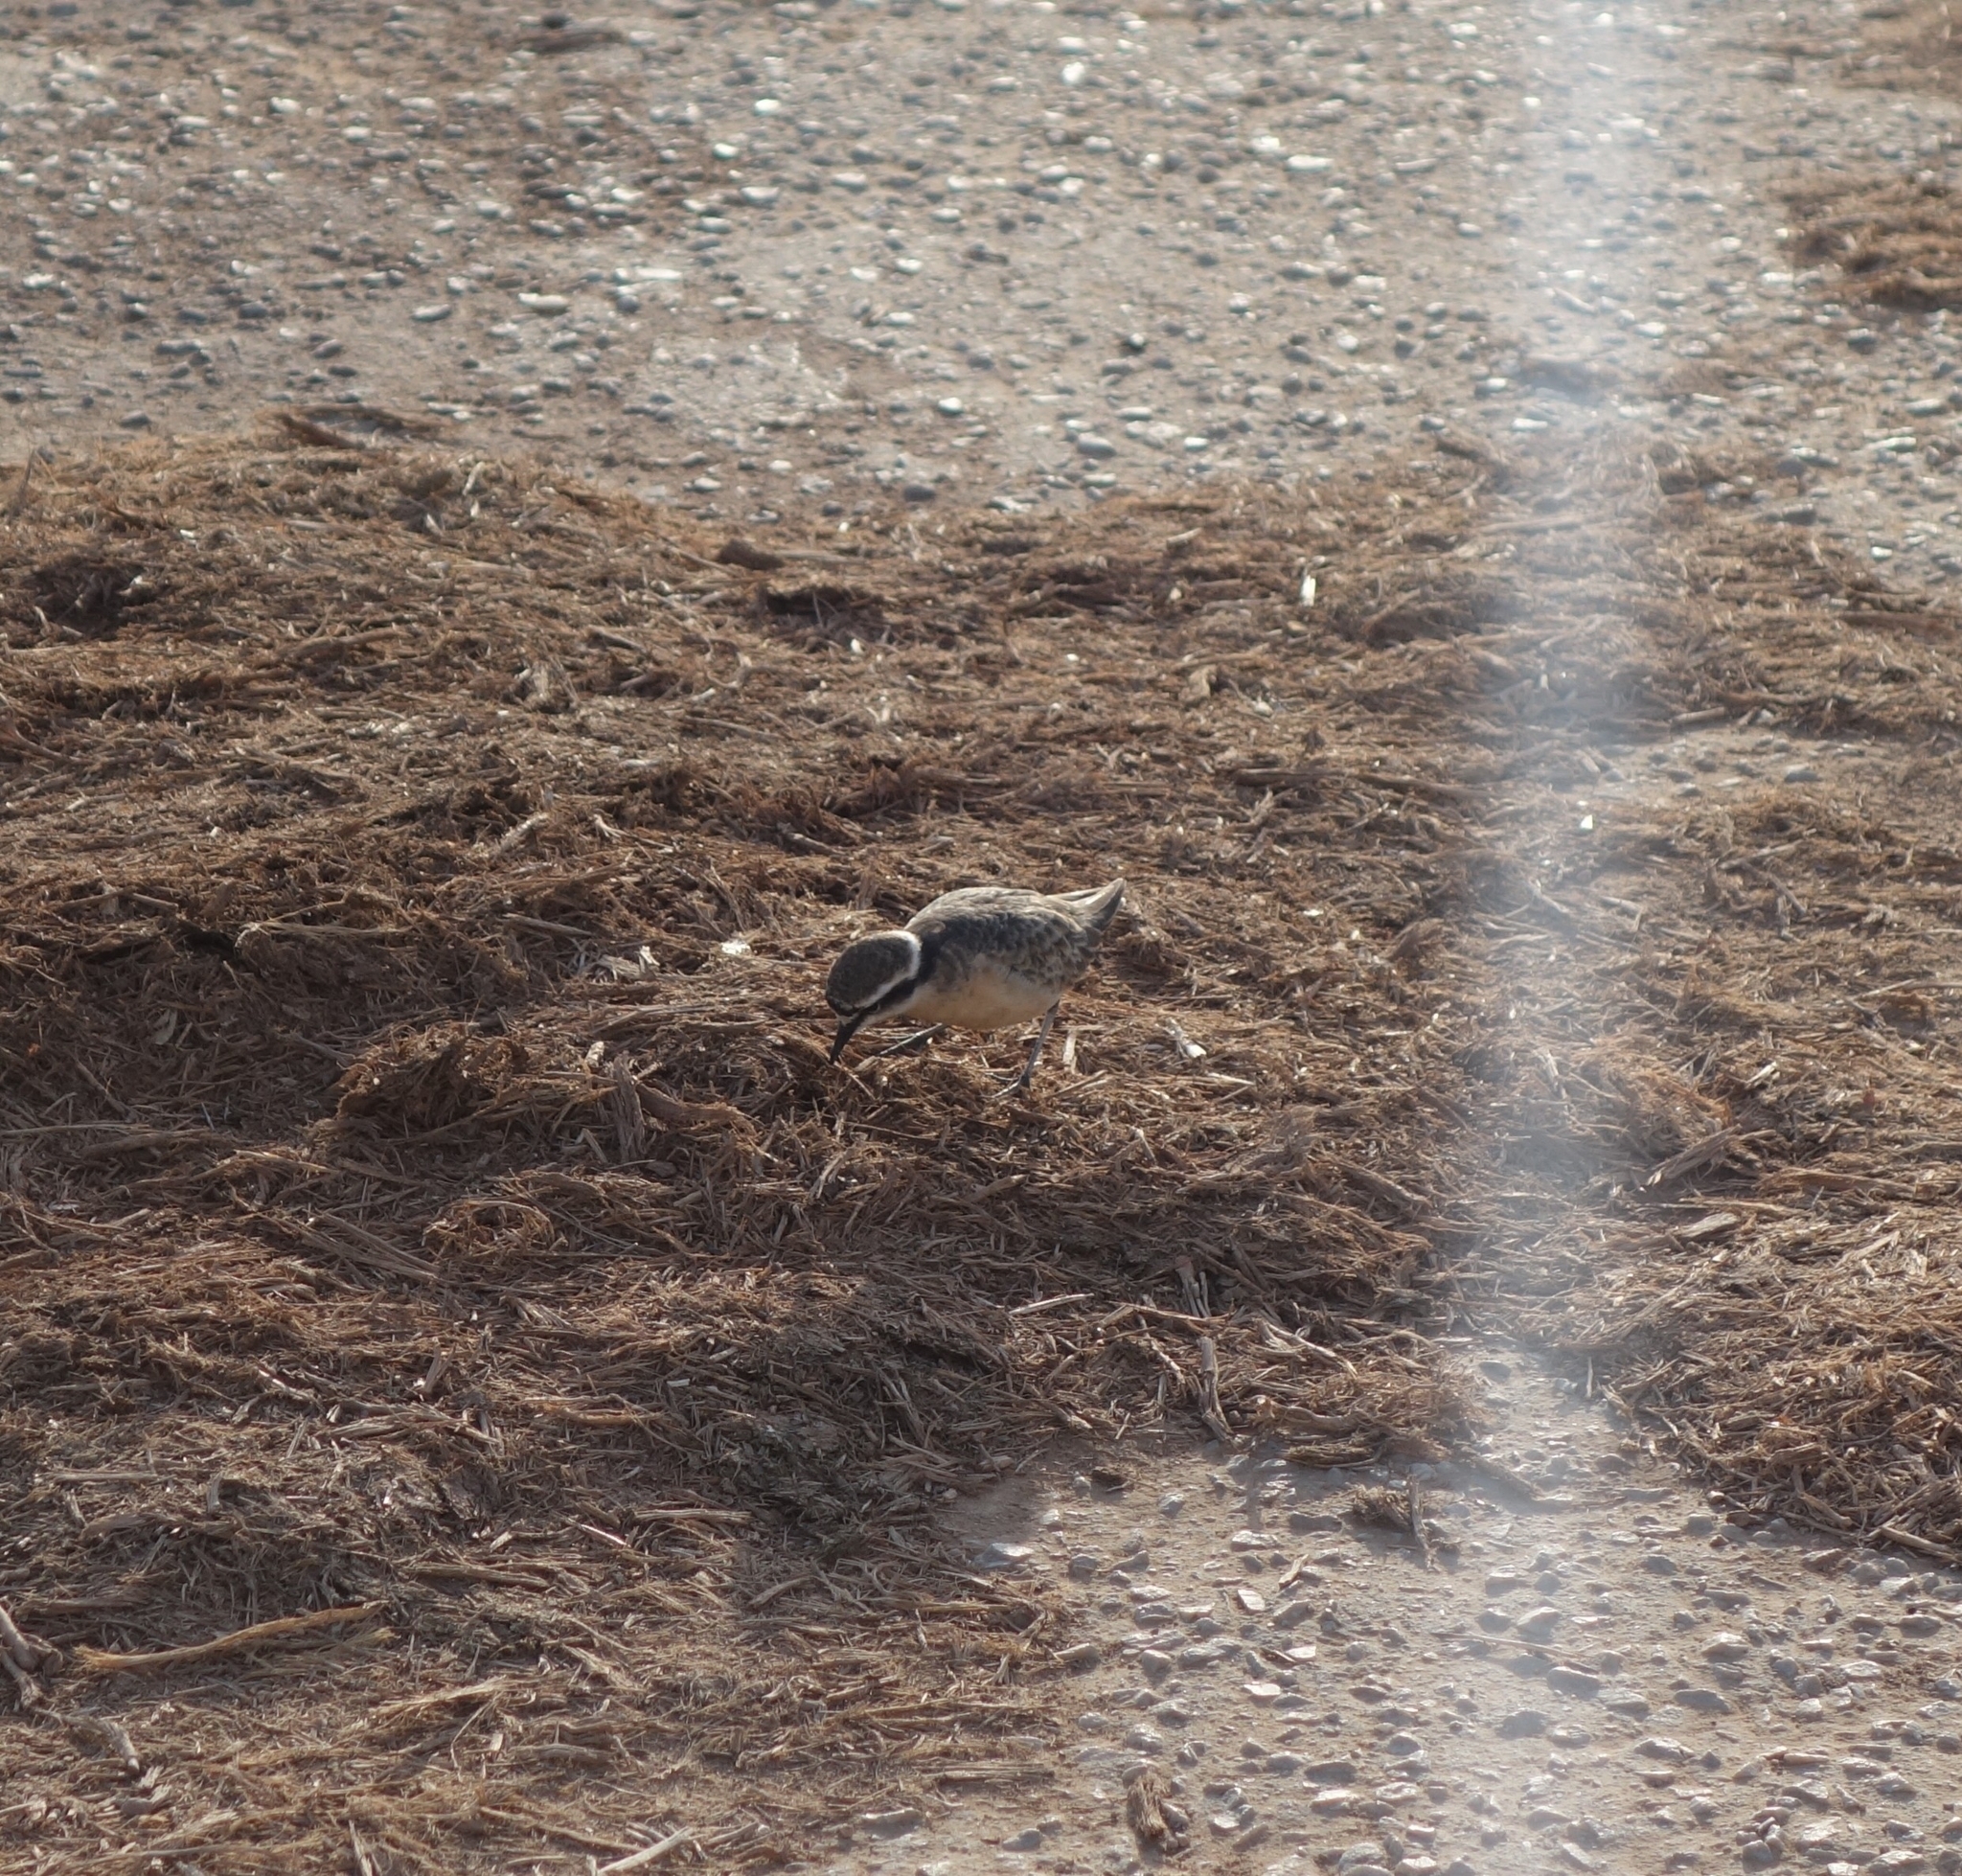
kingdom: Animalia
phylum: Chordata
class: Aves
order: Charadriiformes
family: Charadriidae
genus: Anarhynchus
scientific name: Anarhynchus
